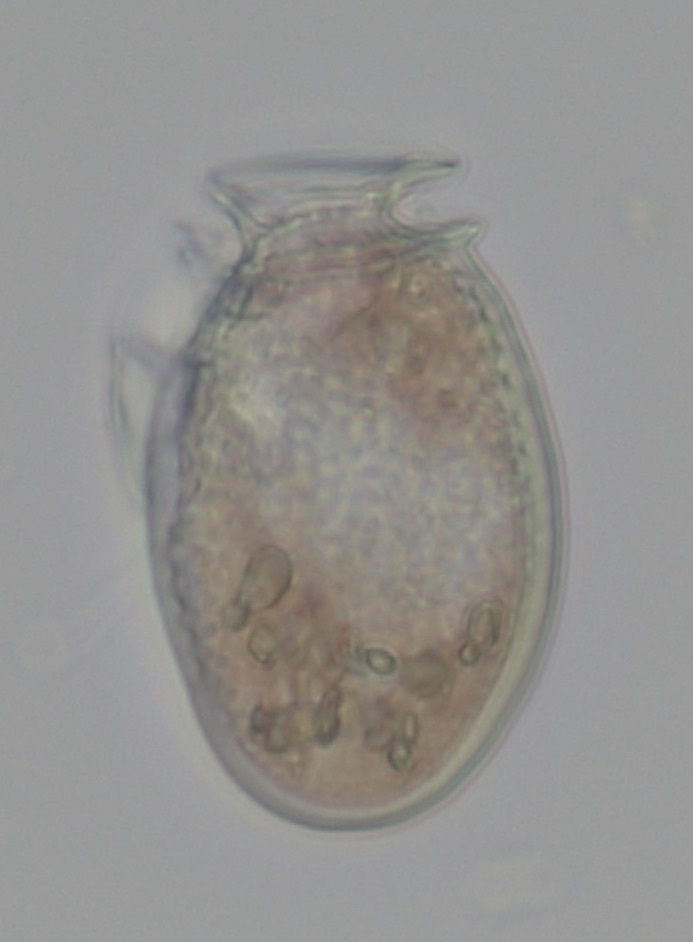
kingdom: Chromista
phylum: Myzozoa
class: Dinophyceae
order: Dinophysiales
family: Dinophysaceae
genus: Dinophysis
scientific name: Dinophysis acuminata
